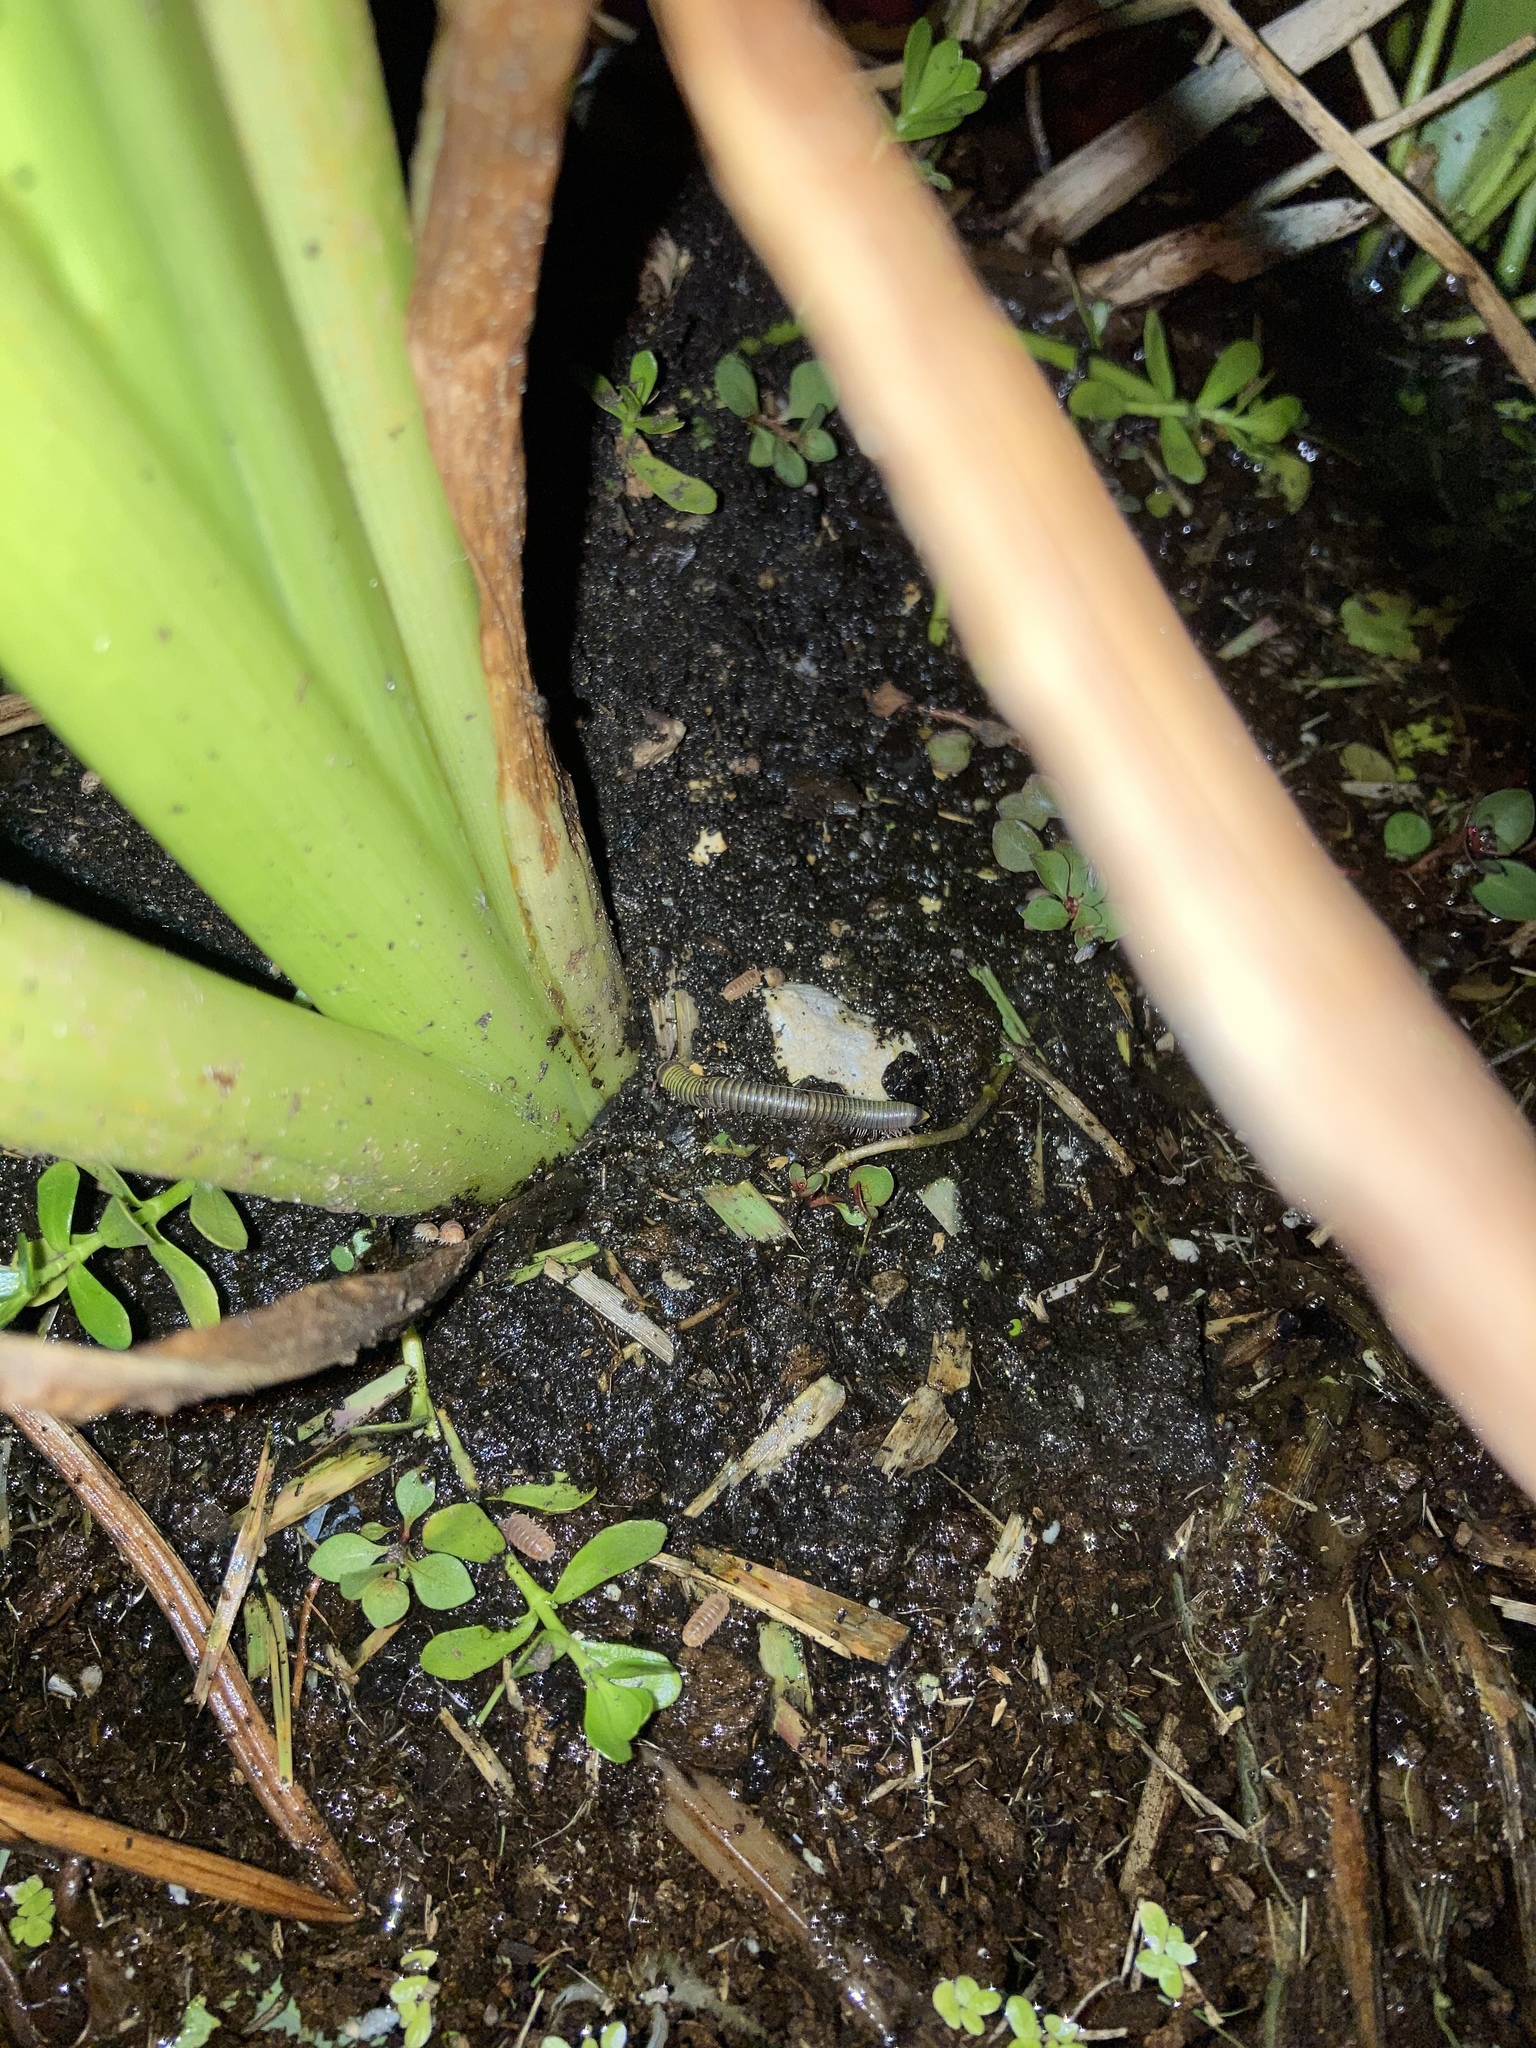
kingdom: Animalia
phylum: Arthropoda
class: Diplopoda
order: Spirobolida
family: Rhinocricidae
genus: Anadenobolus
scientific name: Anadenobolus monilicornis
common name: Caribbean millipede
